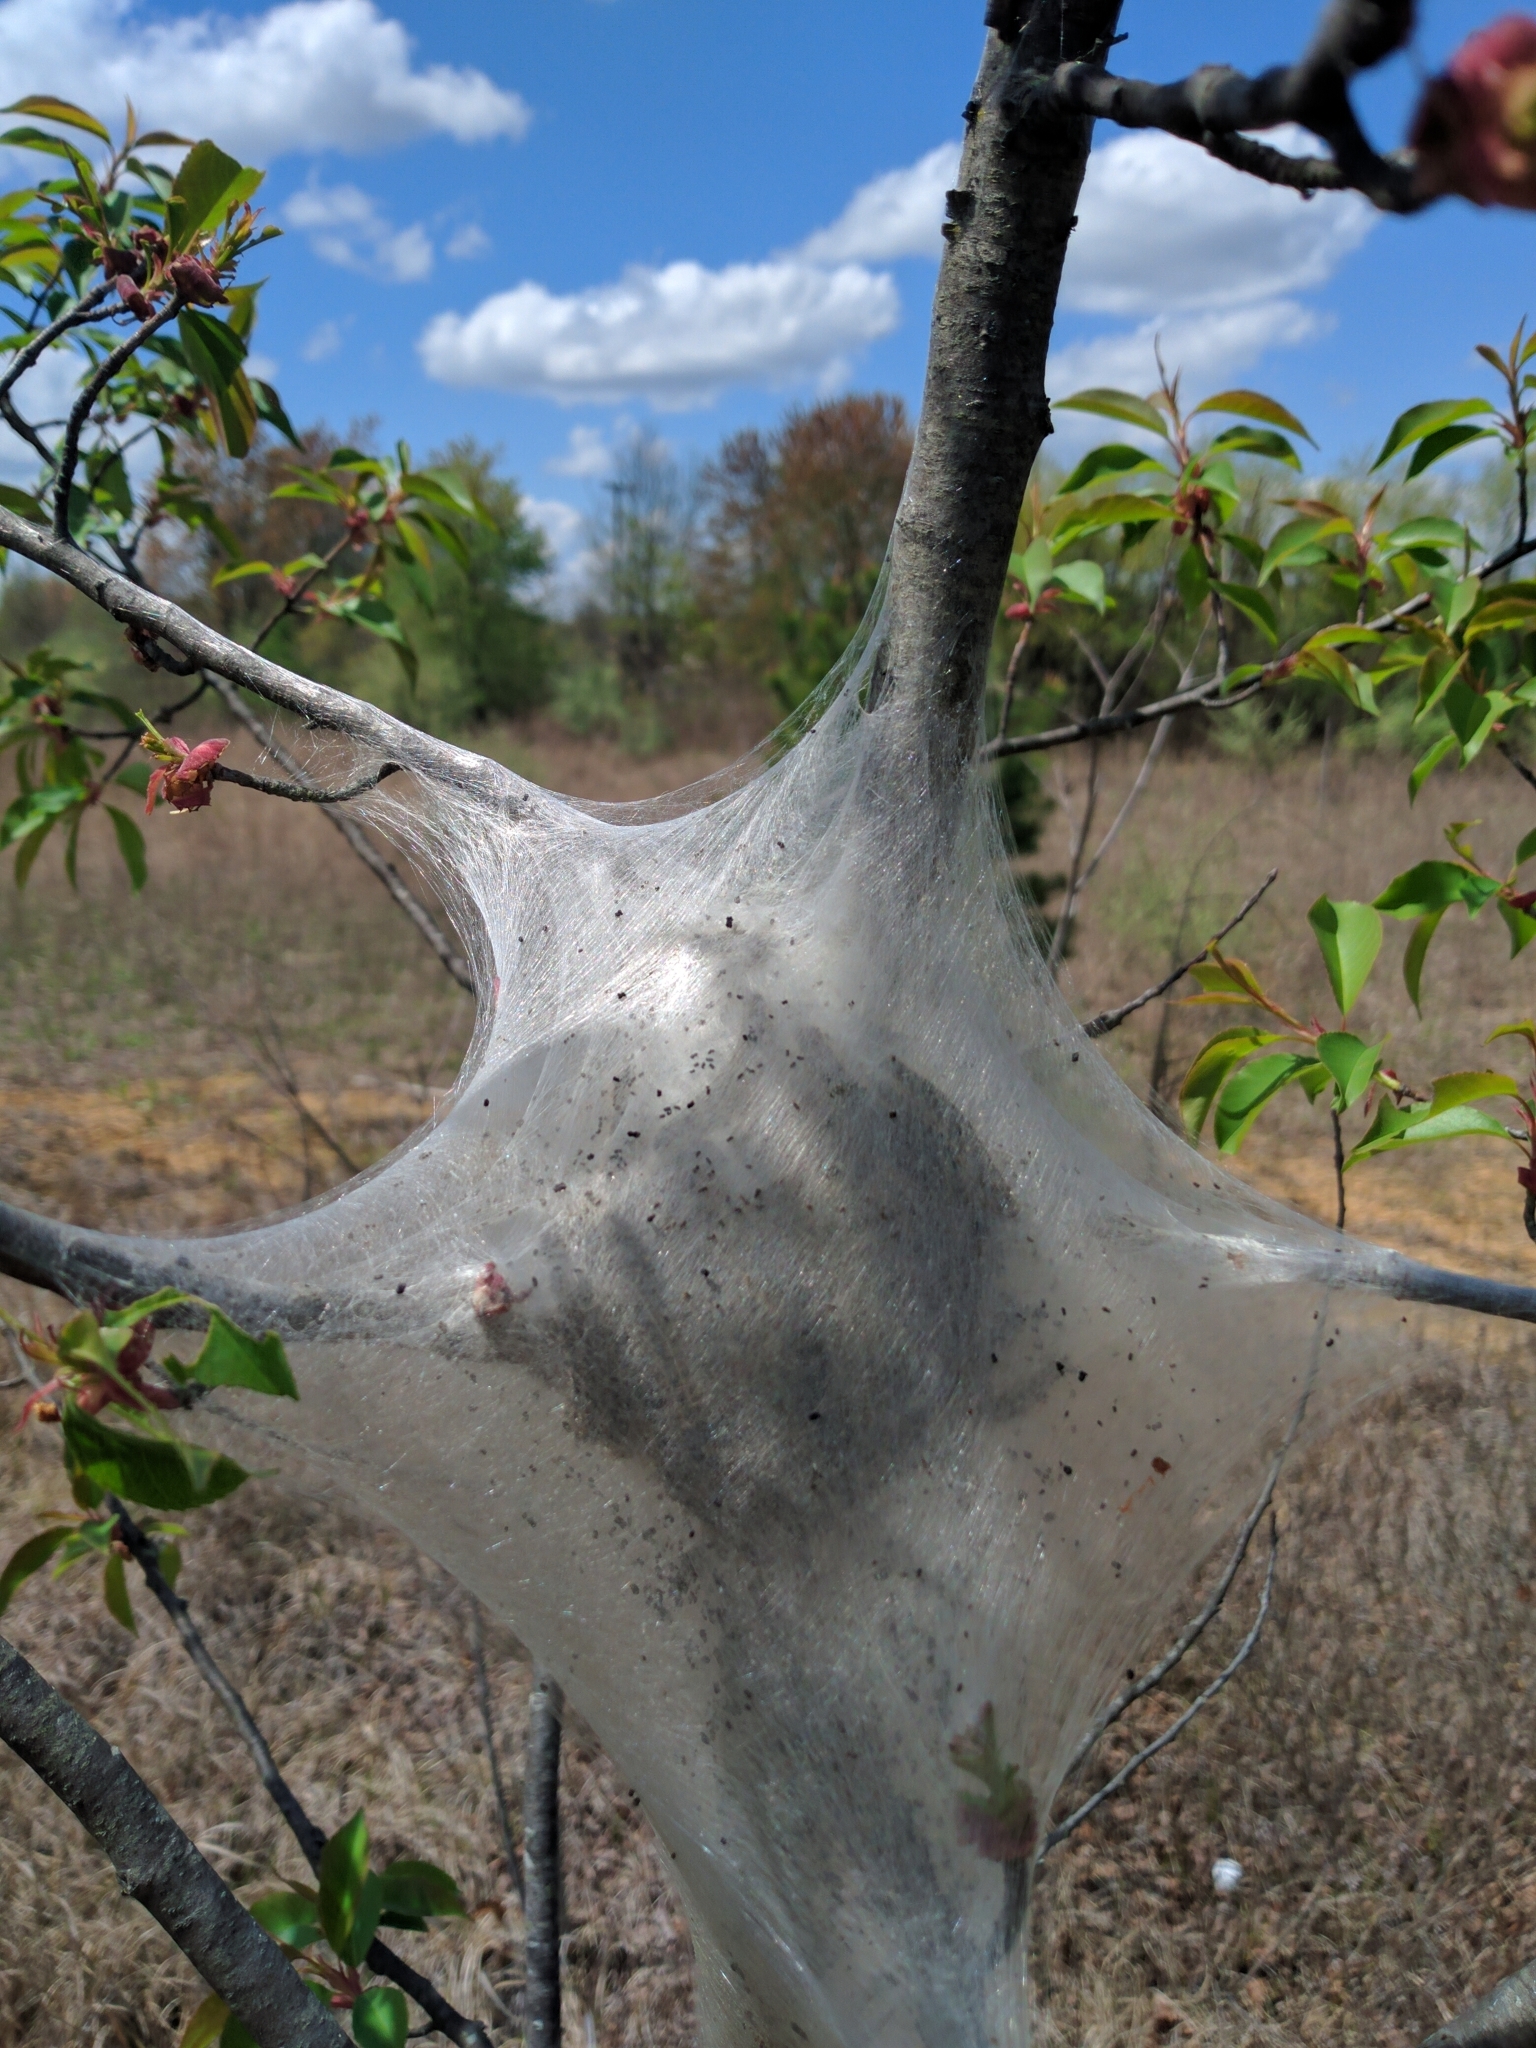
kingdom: Animalia
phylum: Arthropoda
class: Insecta
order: Lepidoptera
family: Lasiocampidae
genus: Malacosoma
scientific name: Malacosoma americana
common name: Eastern tent caterpillar moth
